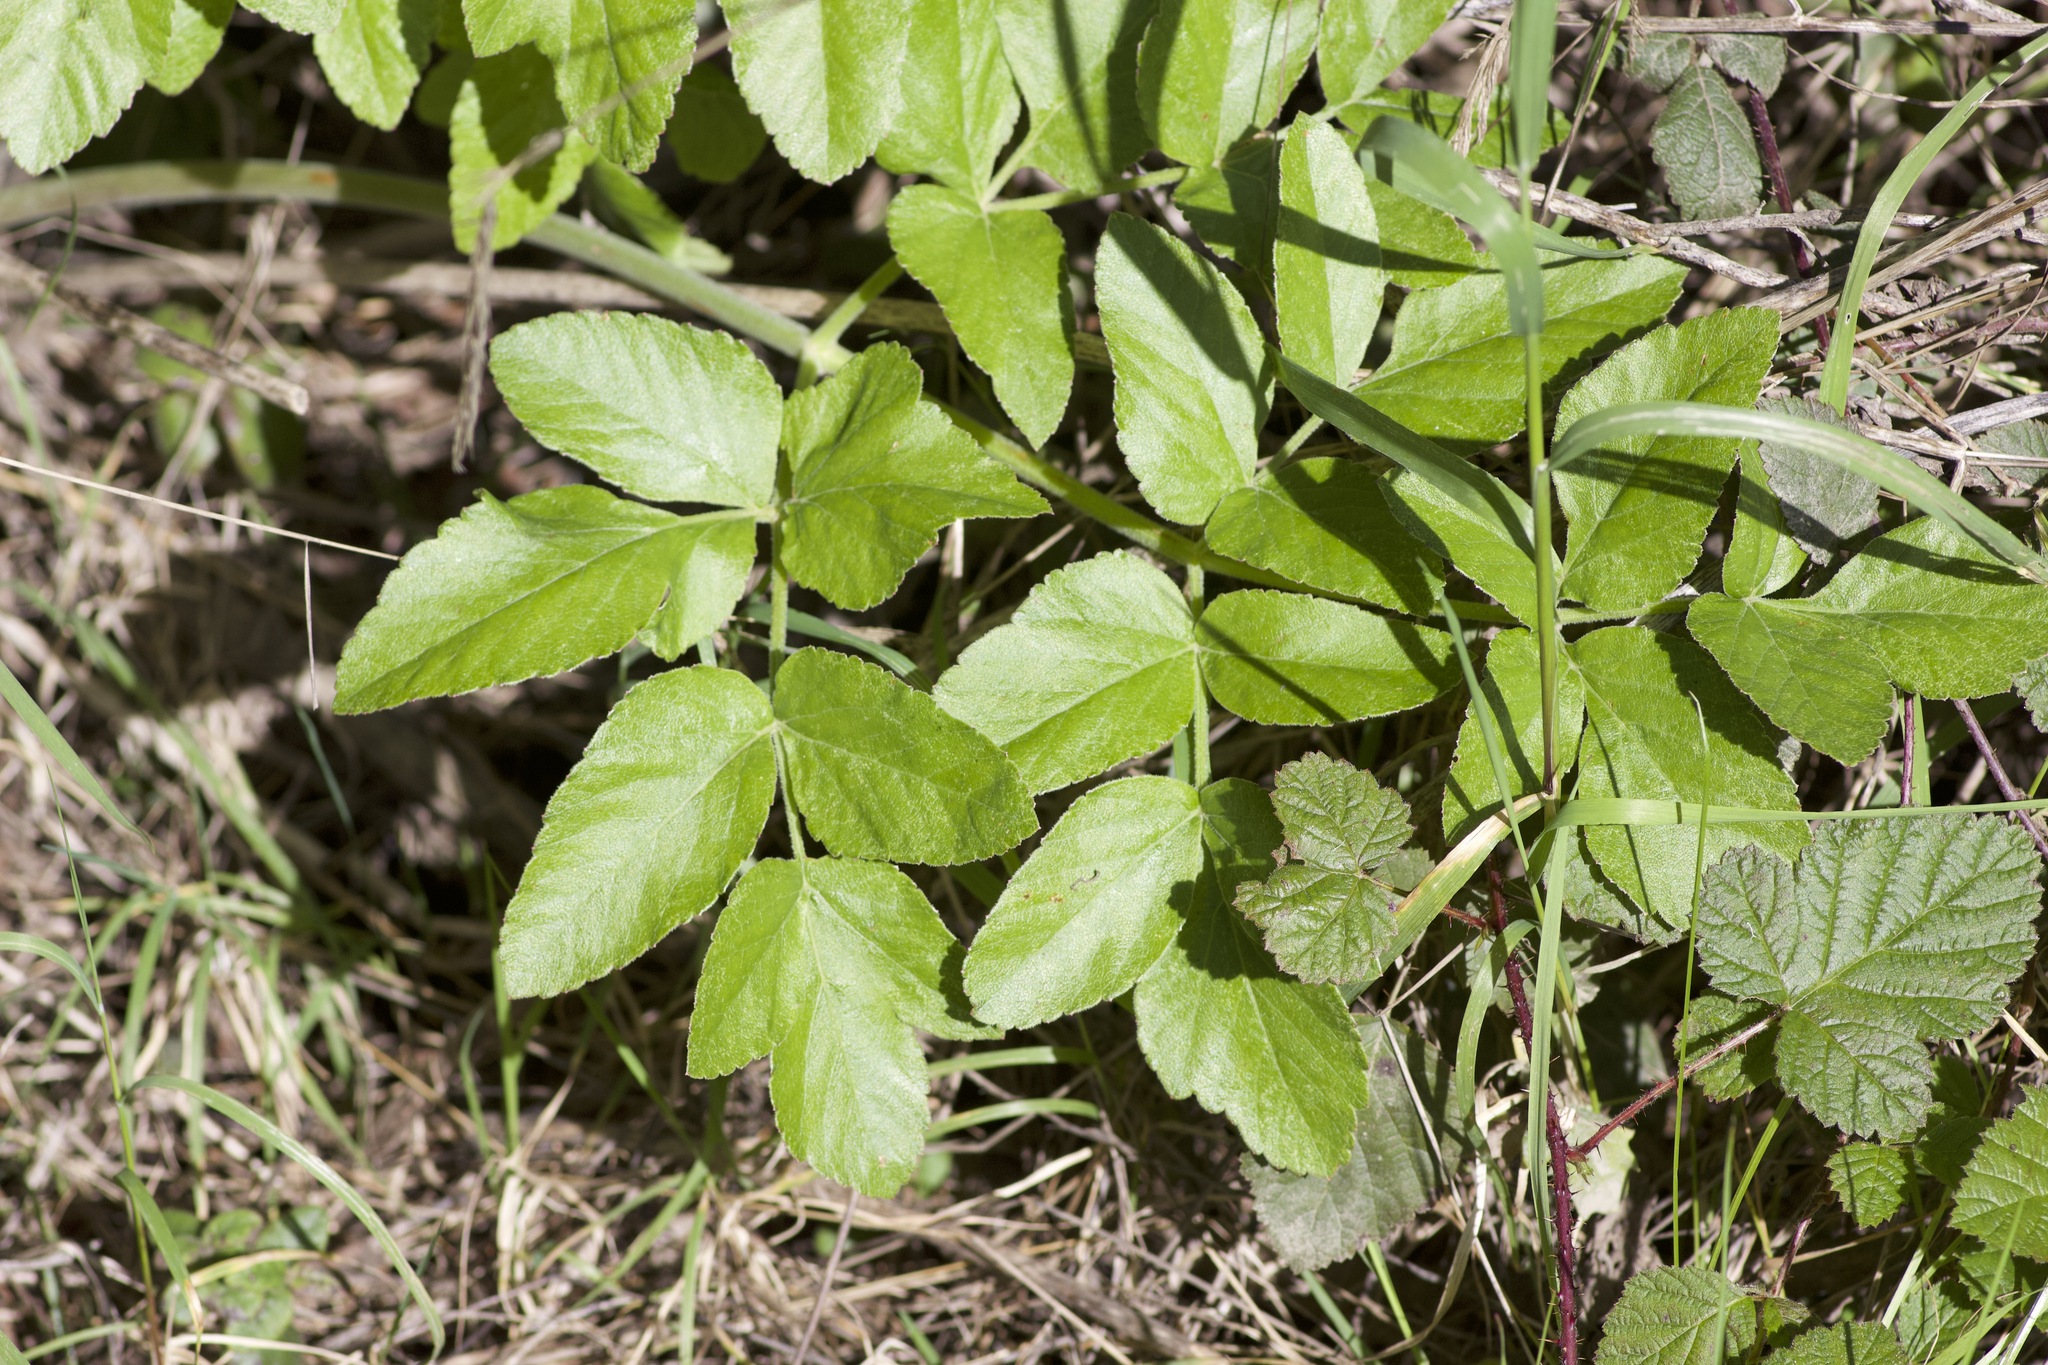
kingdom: Plantae
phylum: Tracheophyta
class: Magnoliopsida
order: Apiales
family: Apiaceae
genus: Angelica
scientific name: Angelica hendersonii
